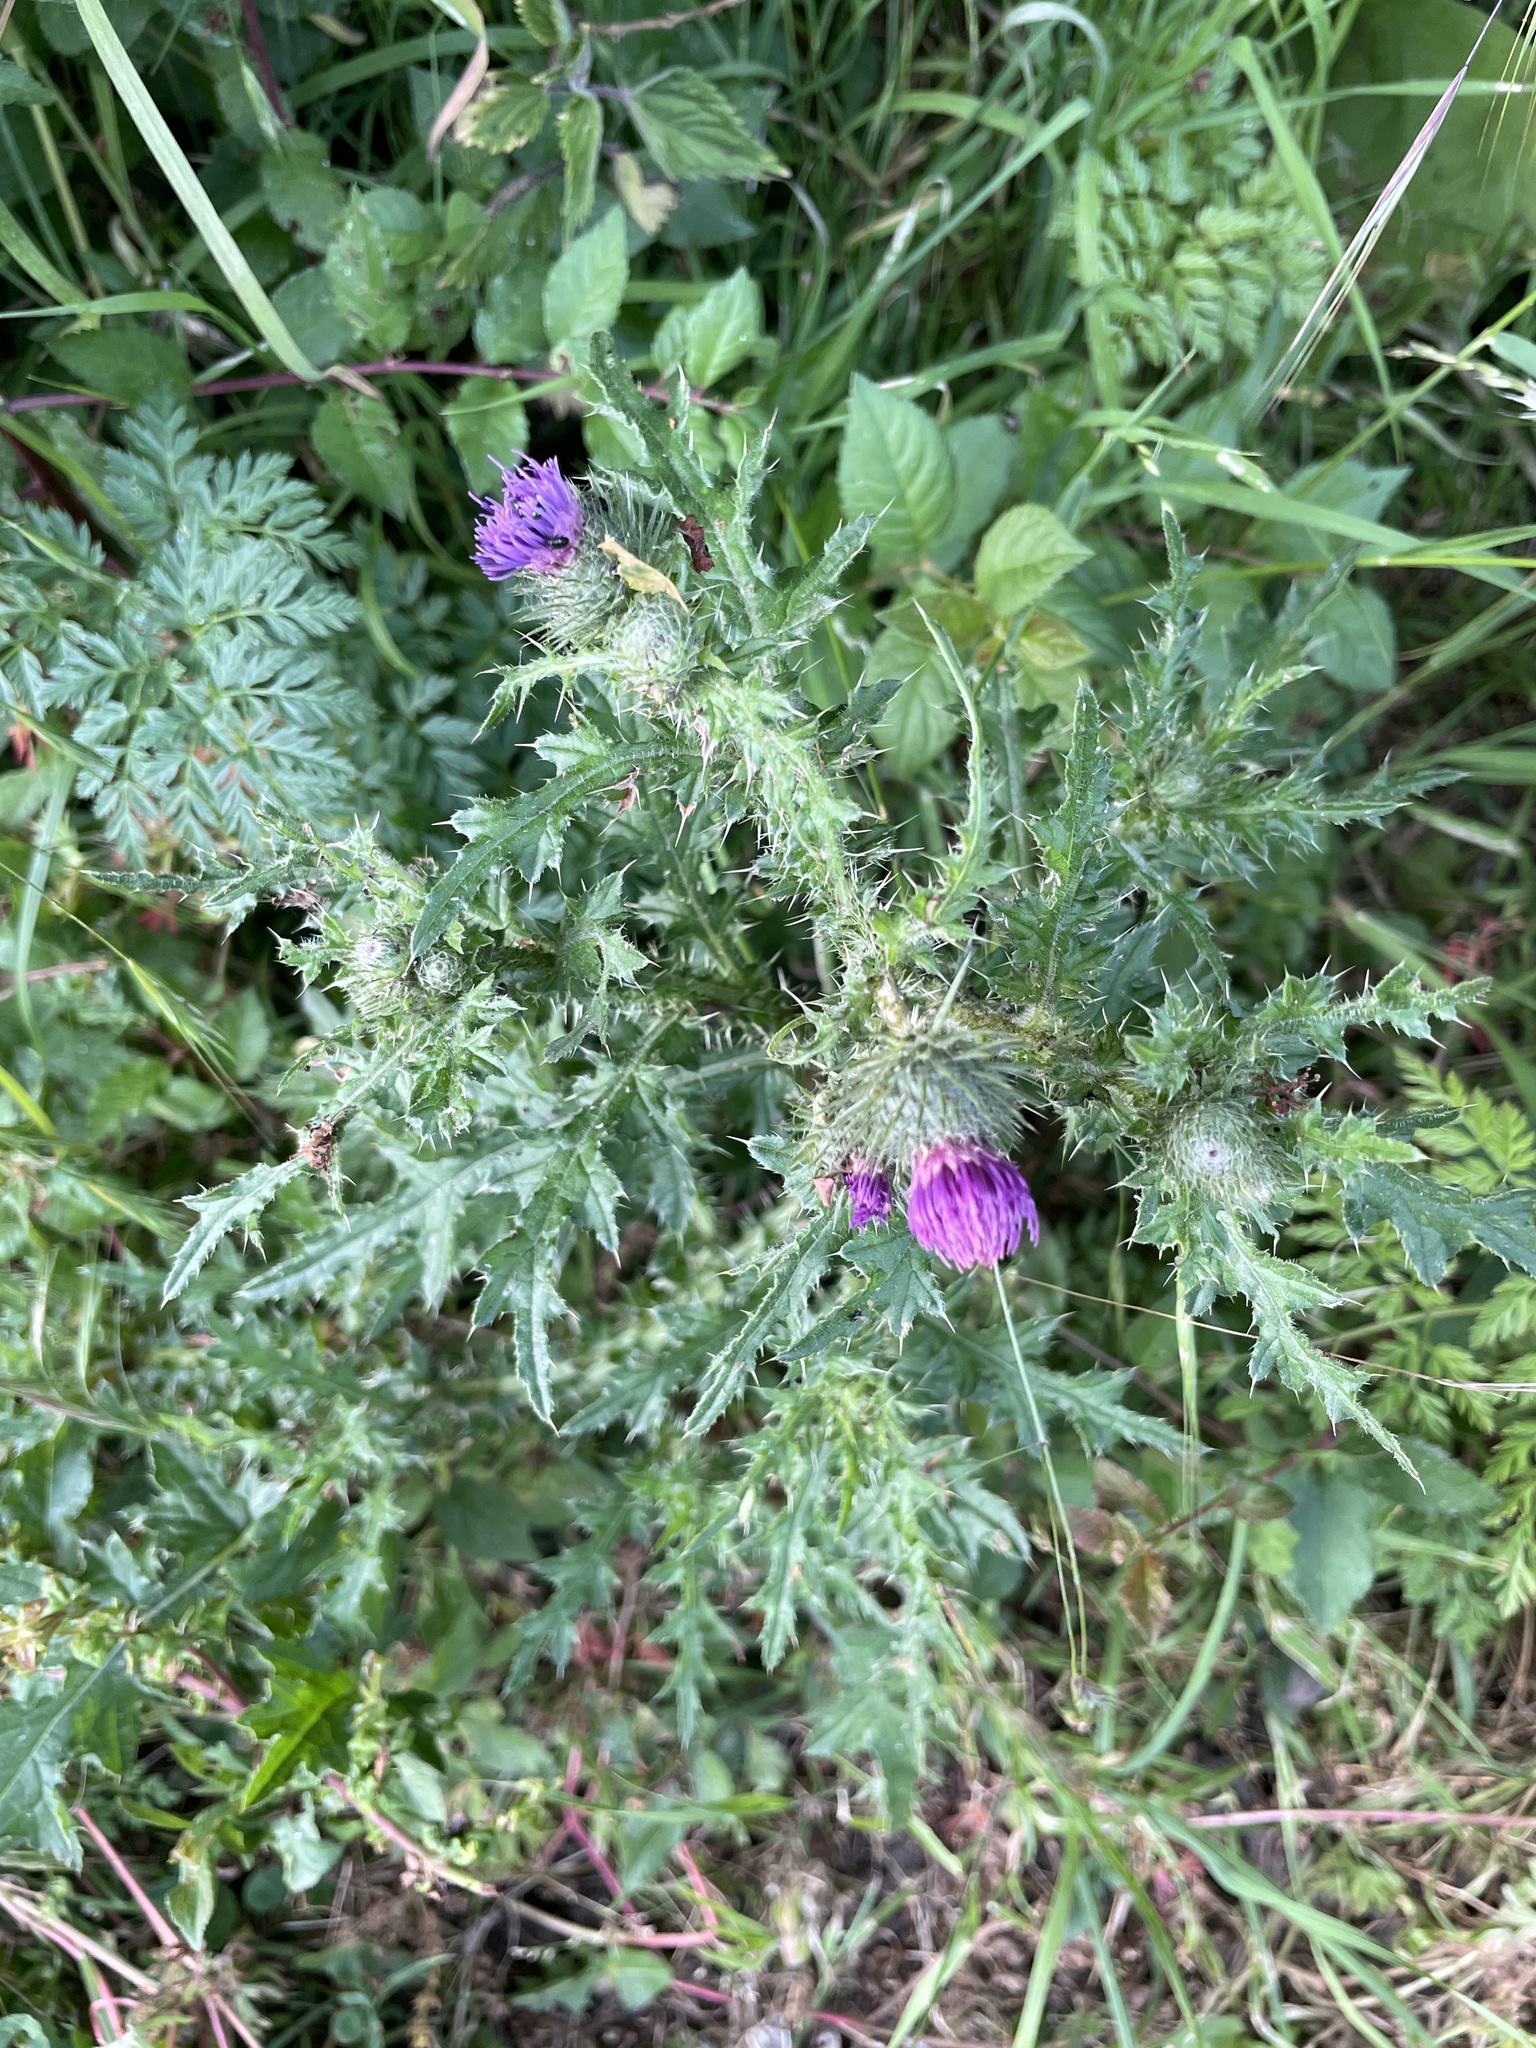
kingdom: Plantae
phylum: Tracheophyta
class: Magnoliopsida
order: Asterales
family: Asteraceae
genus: Carduus
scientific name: Carduus crispus
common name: Welted thistle
